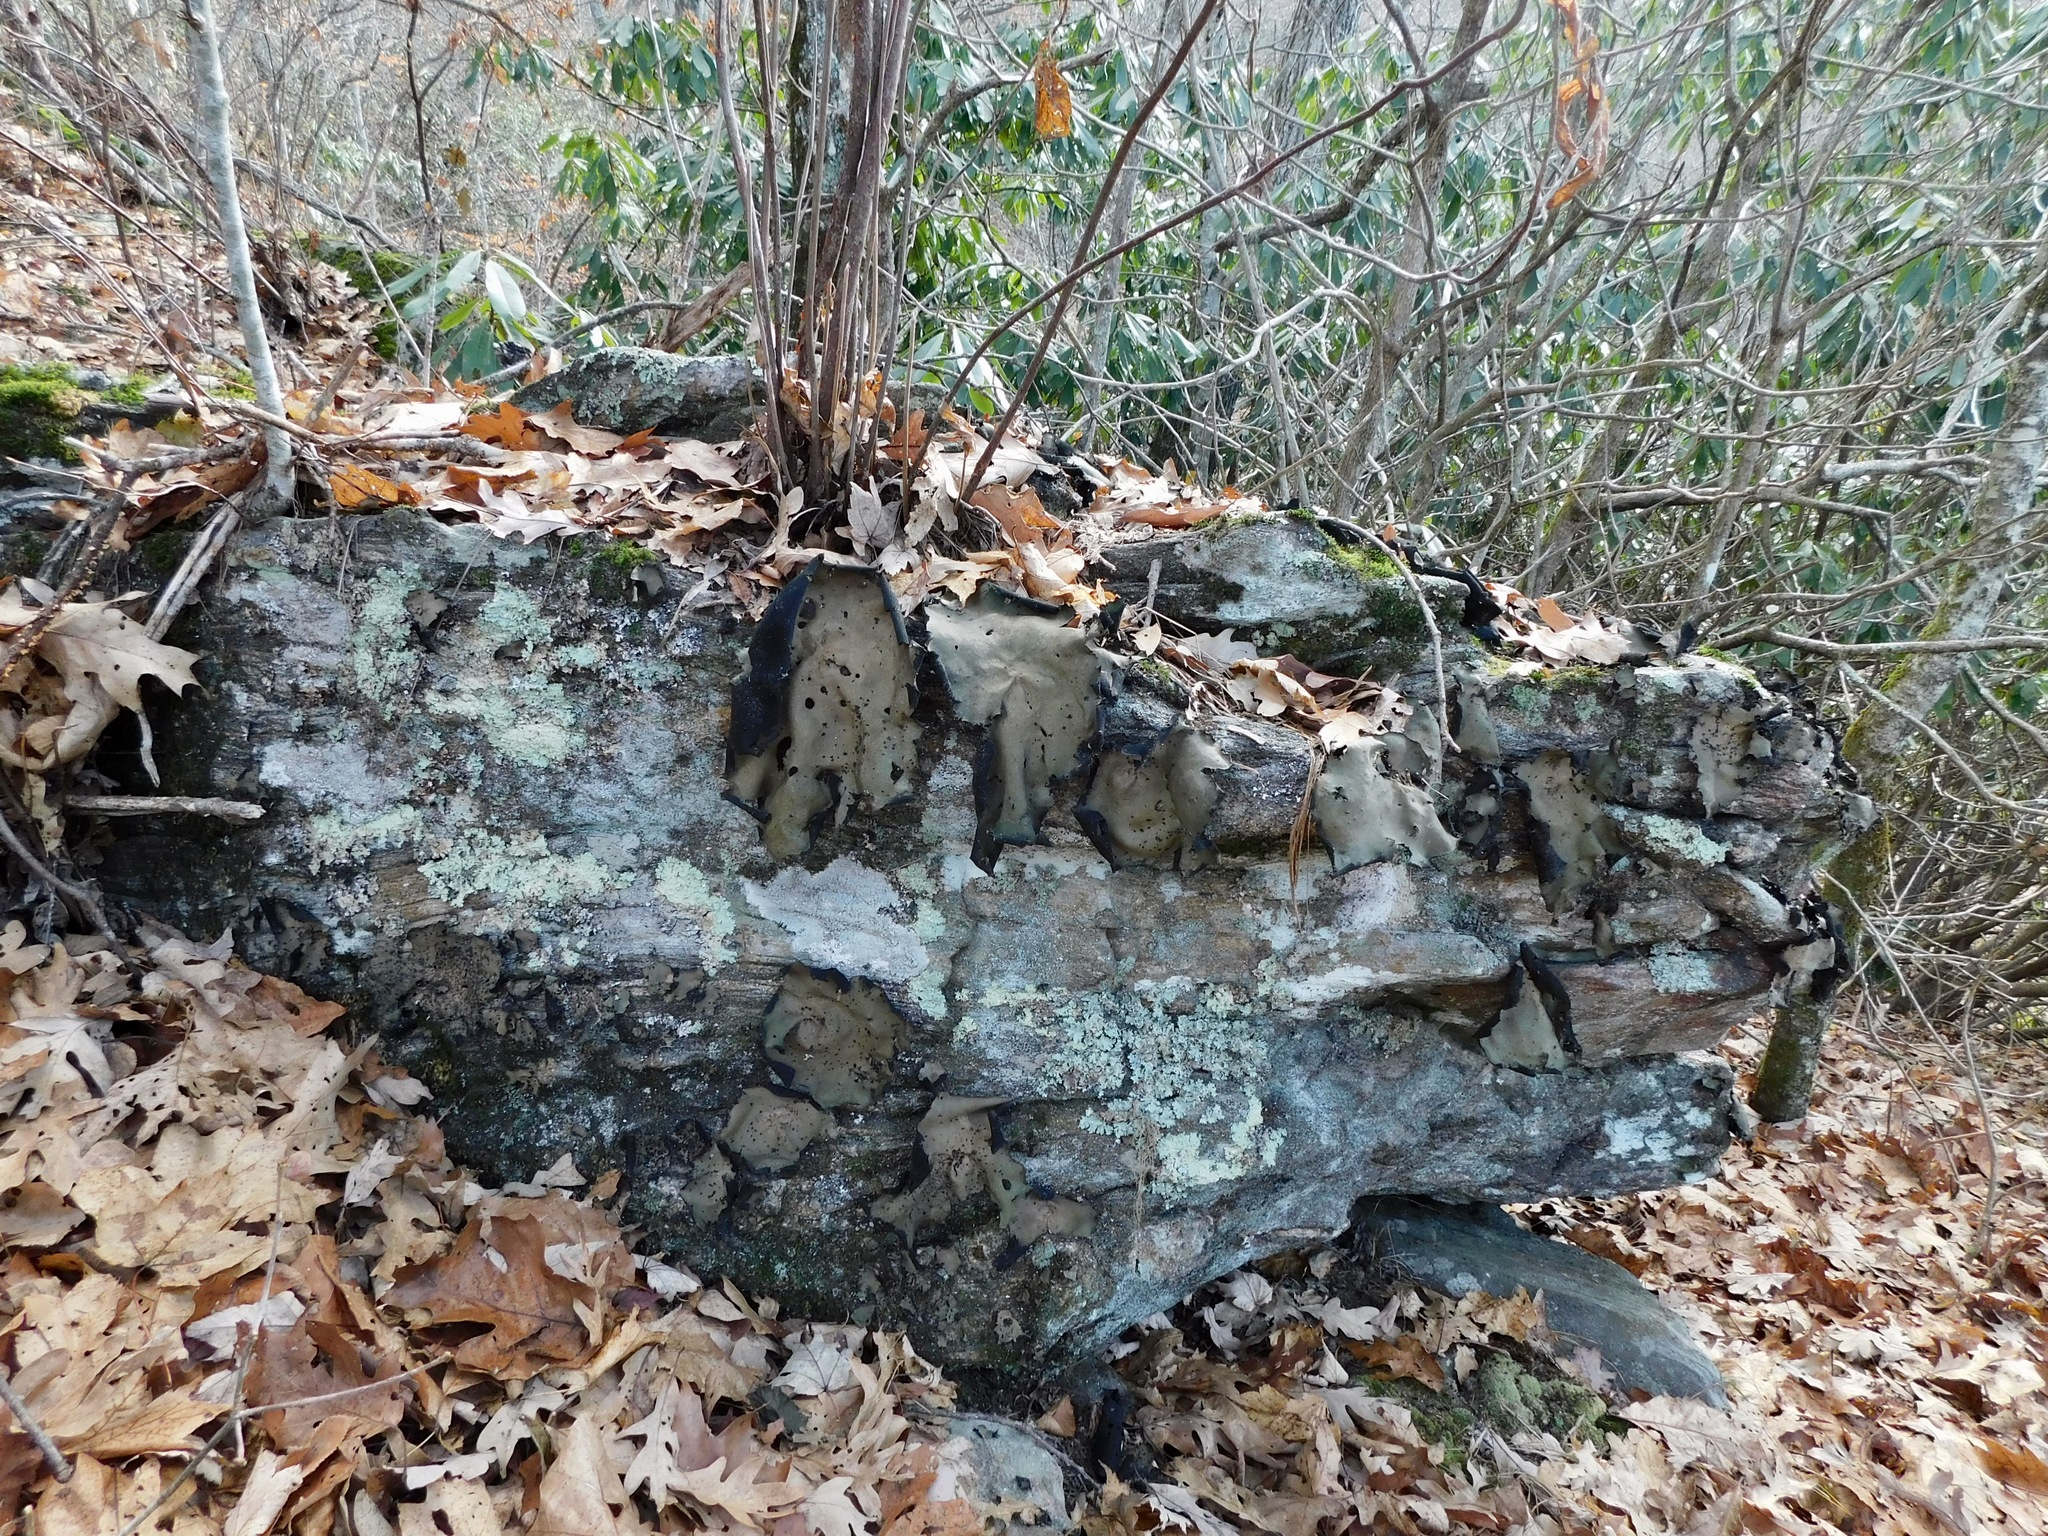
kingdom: Fungi
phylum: Ascomycota
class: Lecanoromycetes
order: Umbilicariales
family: Umbilicariaceae
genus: Umbilicaria
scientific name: Umbilicaria mammulata
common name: Smooth rock tripe
